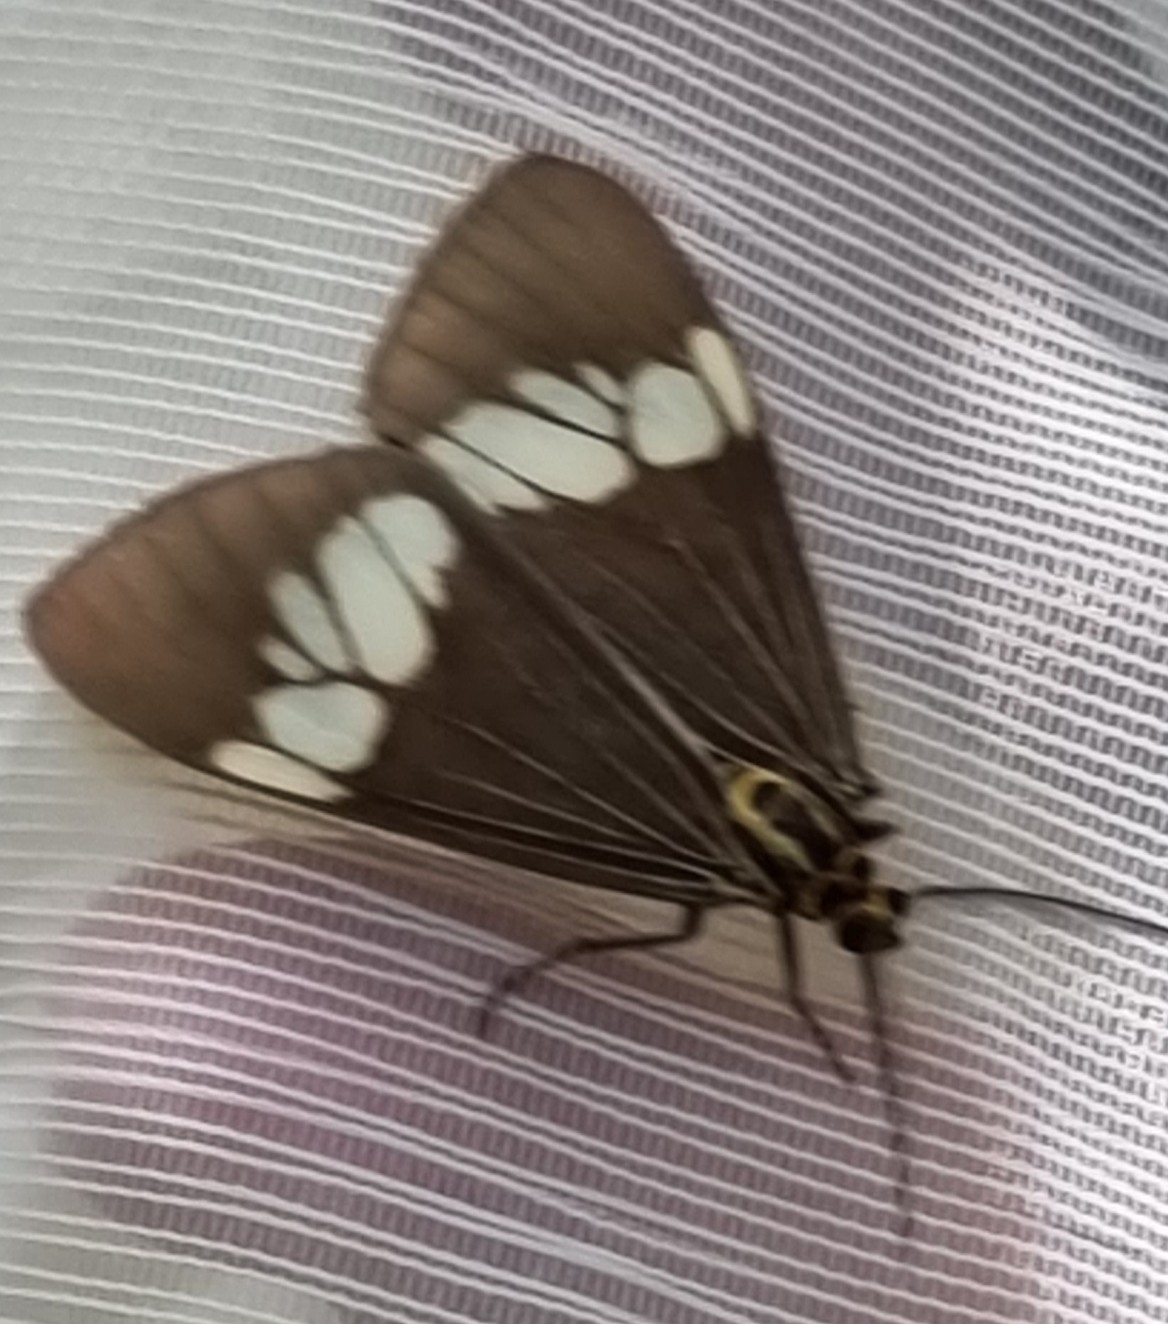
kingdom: Animalia
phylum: Arthropoda
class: Insecta
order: Lepidoptera
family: Erebidae
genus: Nyctemera
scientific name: Nyctemera baulus
